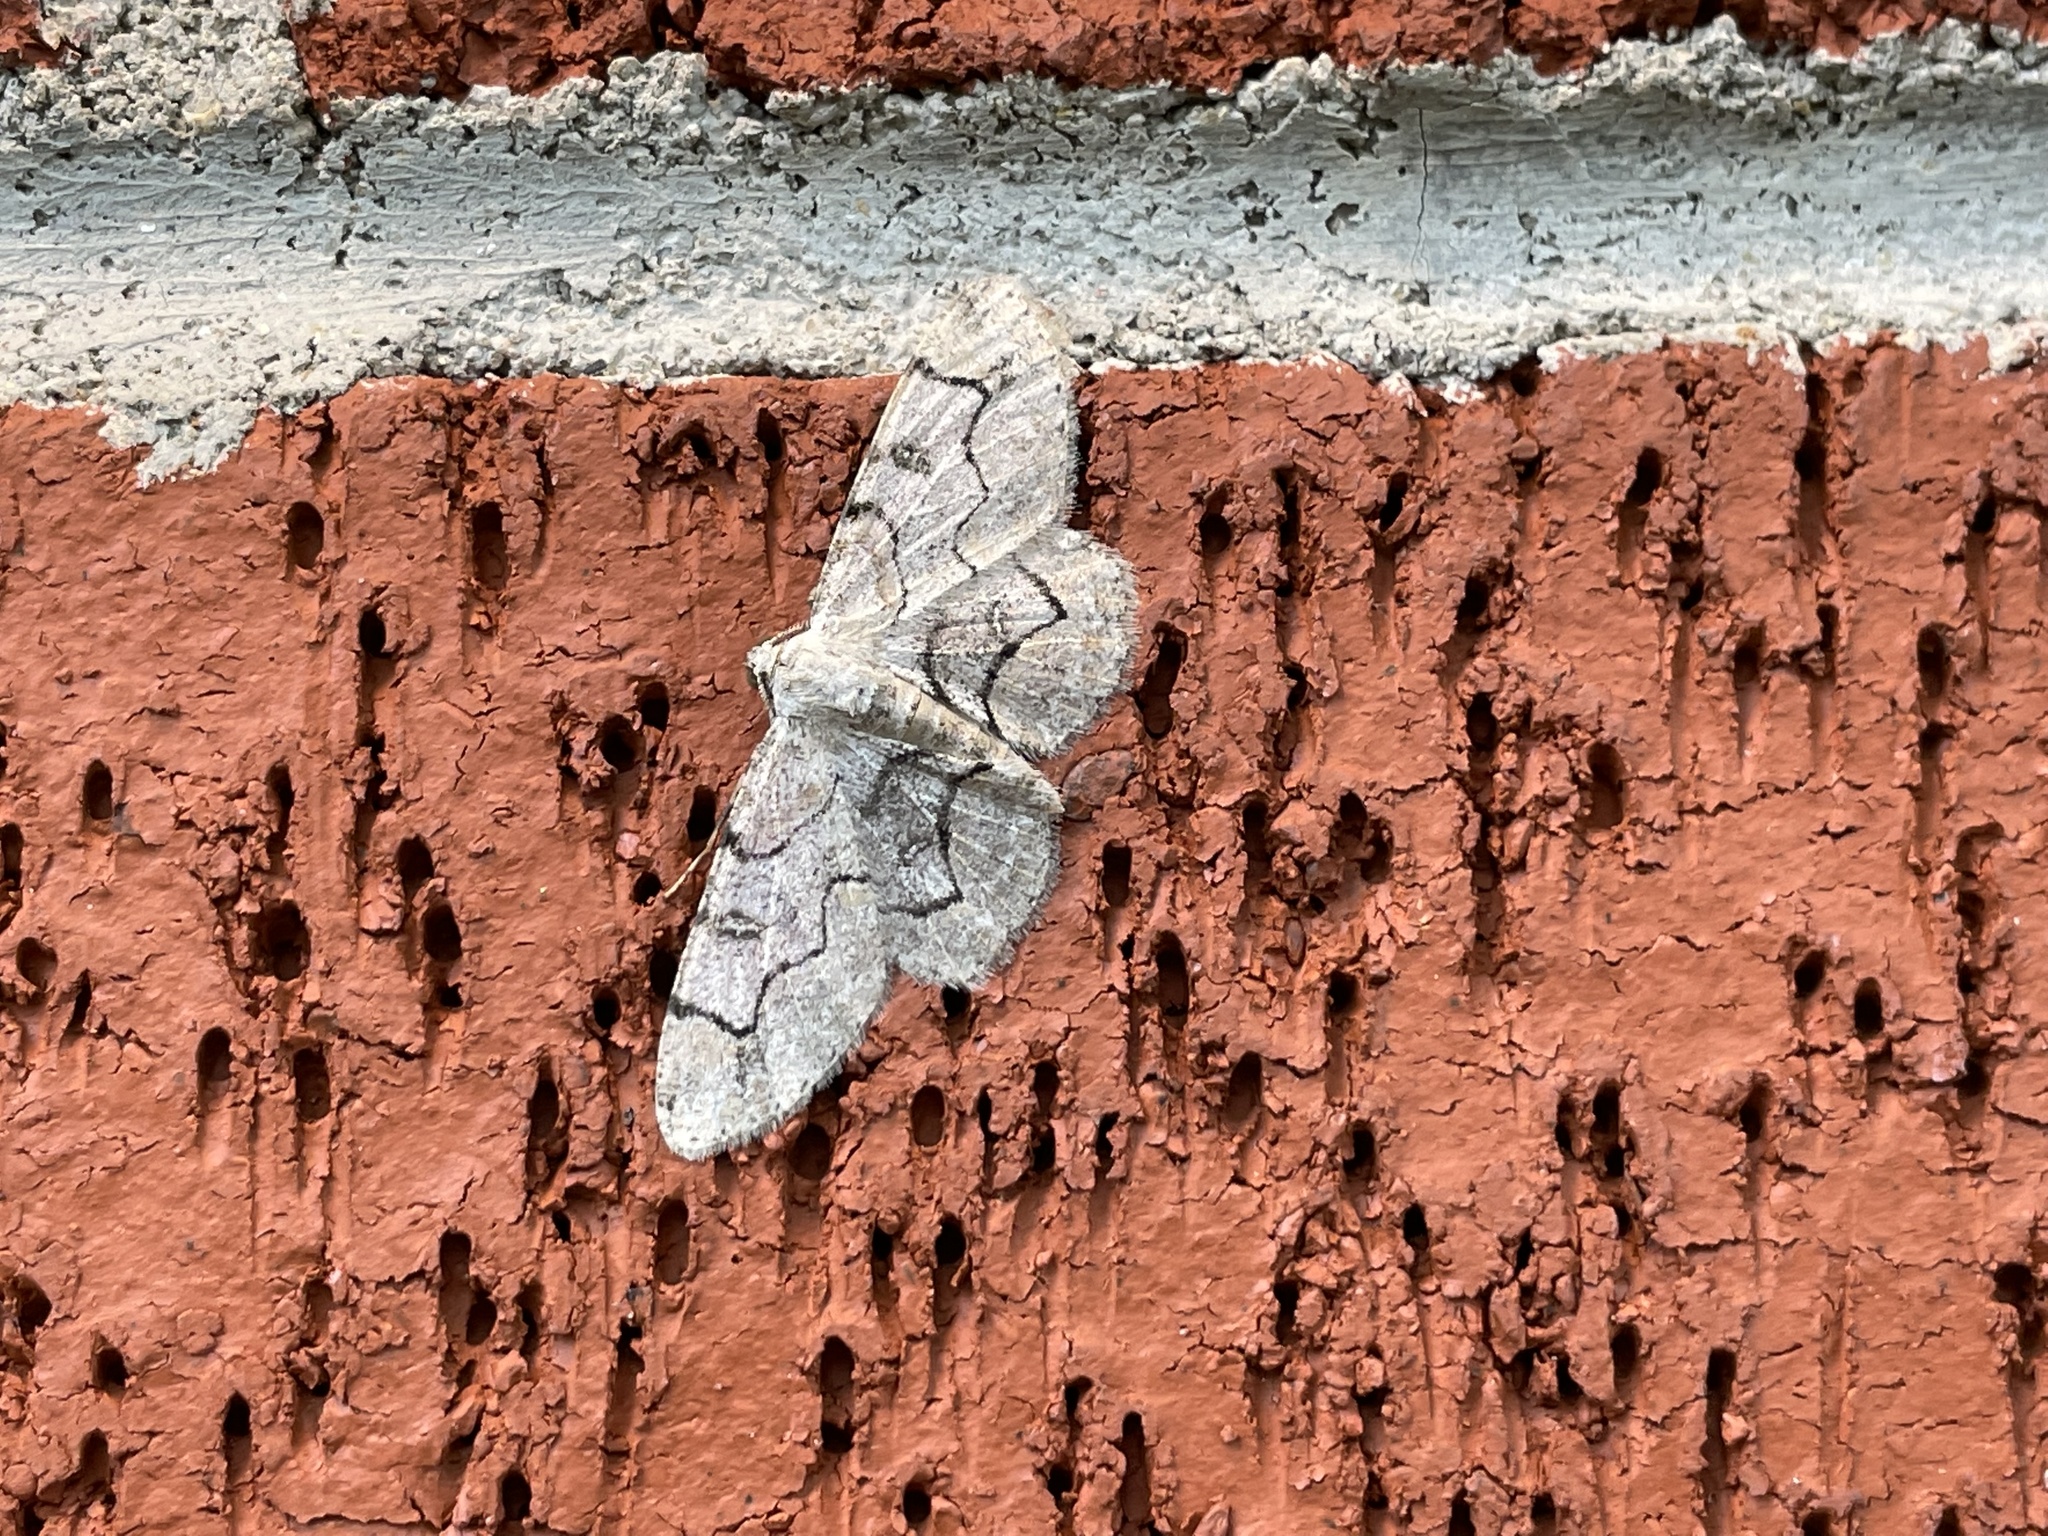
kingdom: Animalia
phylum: Arthropoda
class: Insecta
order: Lepidoptera
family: Geometridae
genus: Iridopsis
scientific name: Iridopsis larvaria
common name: Bent-line gray
